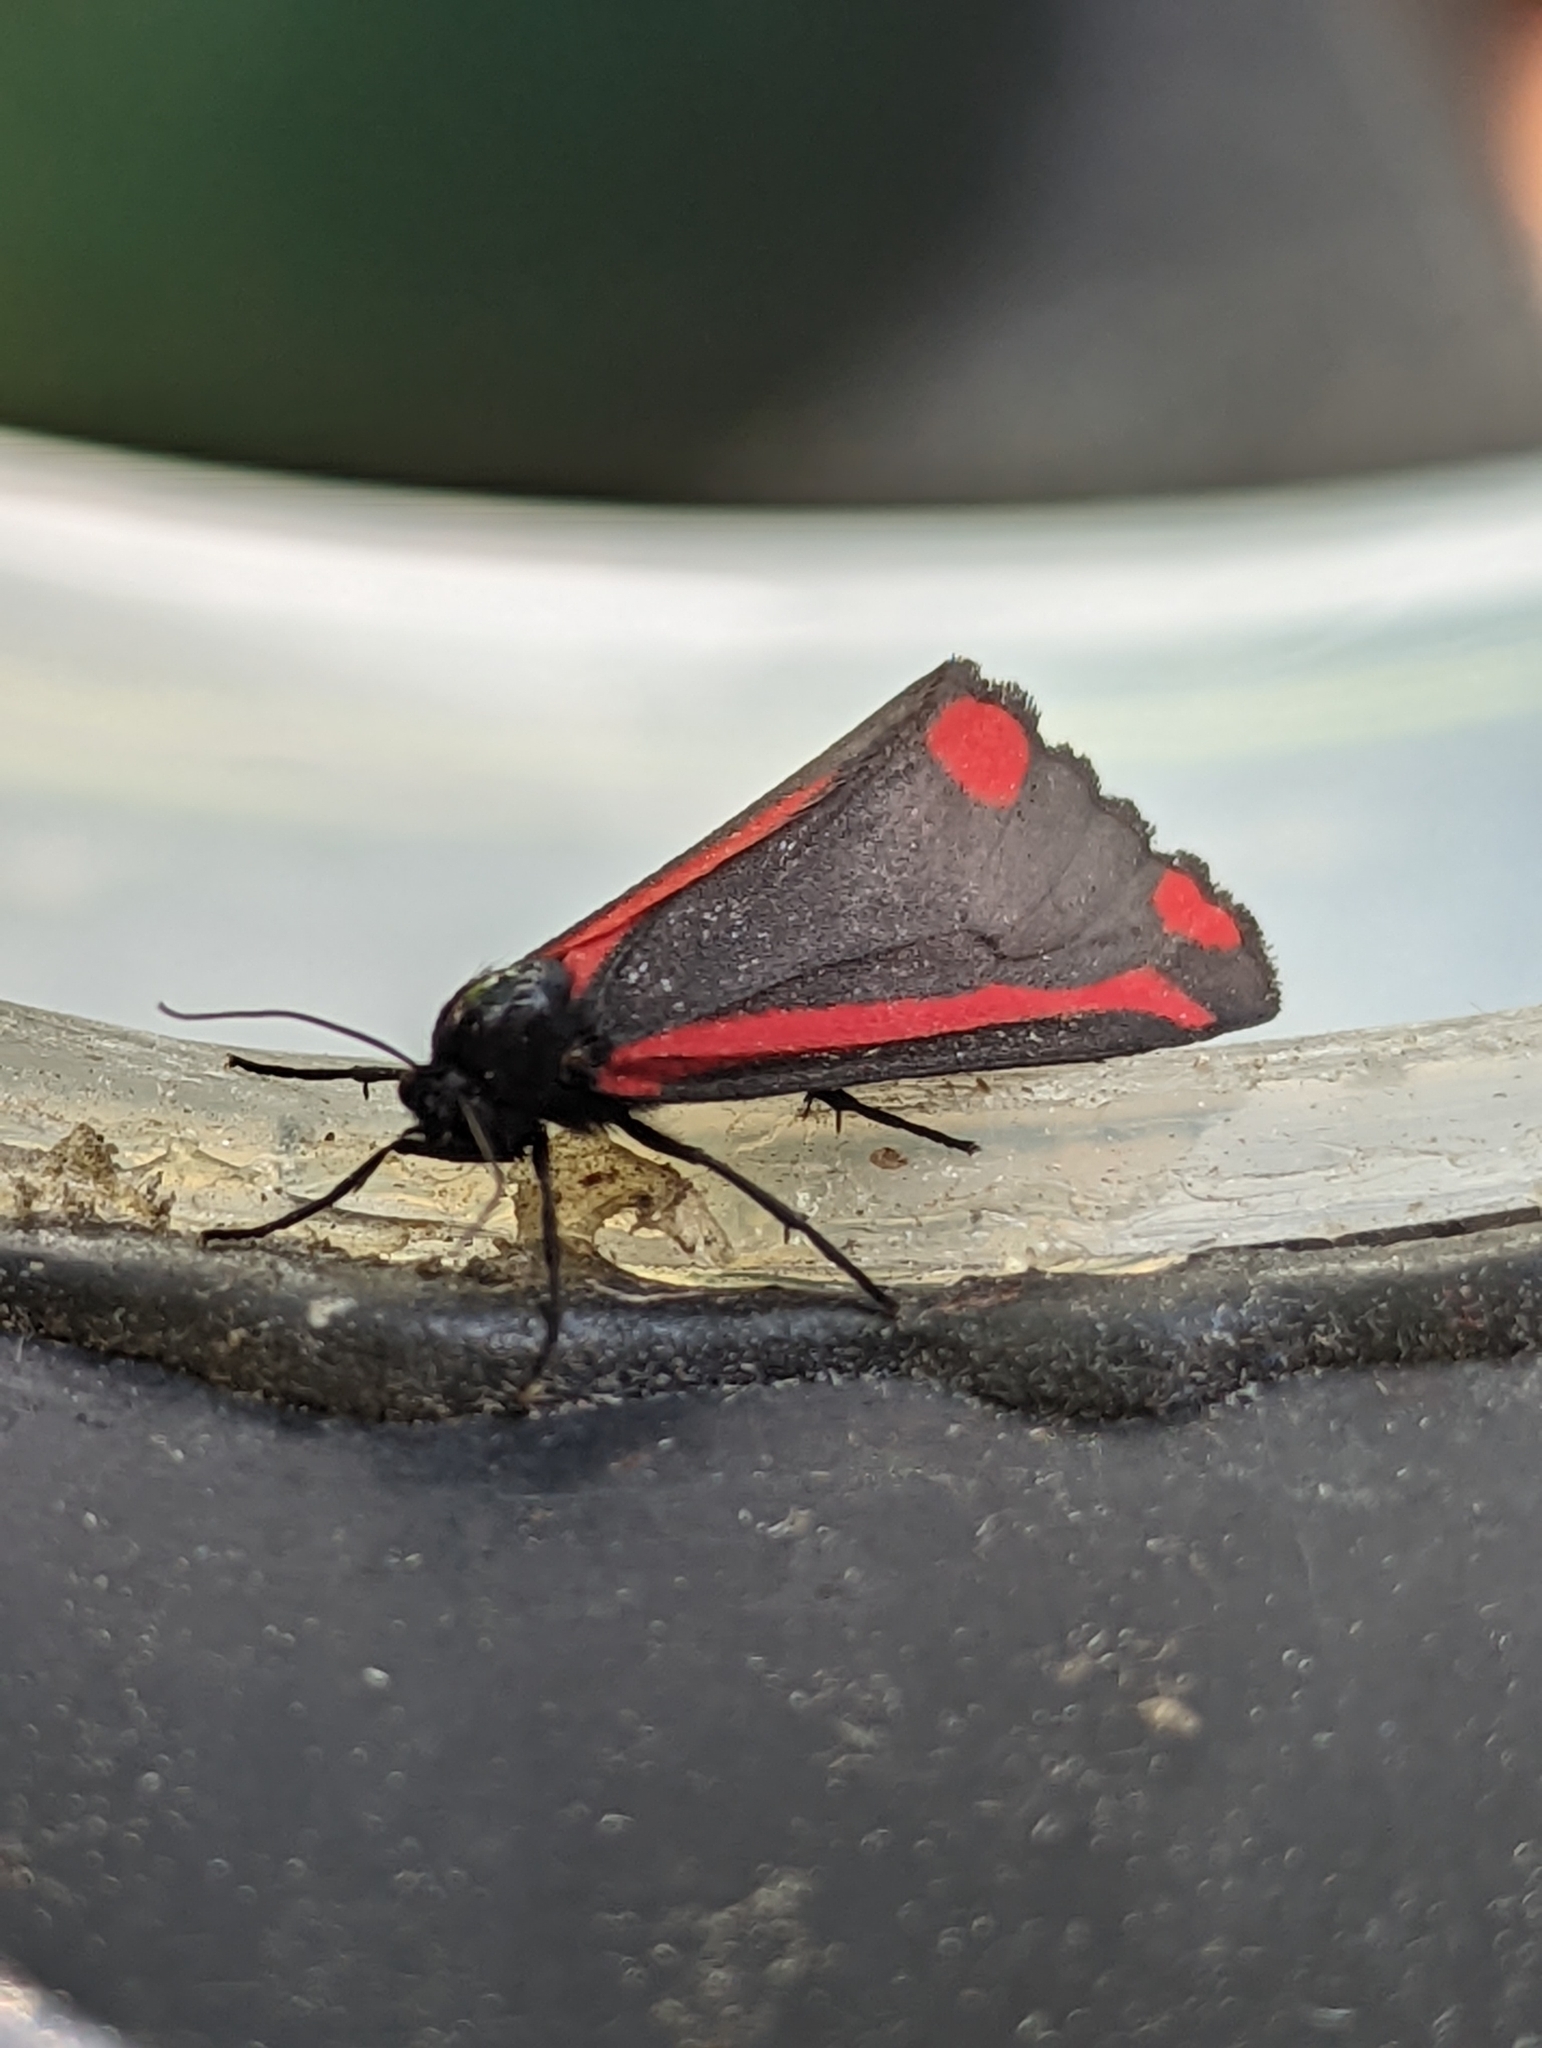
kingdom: Animalia
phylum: Arthropoda
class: Insecta
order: Lepidoptera
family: Erebidae
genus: Tyria
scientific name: Tyria jacobaeae
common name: Cinnabar
